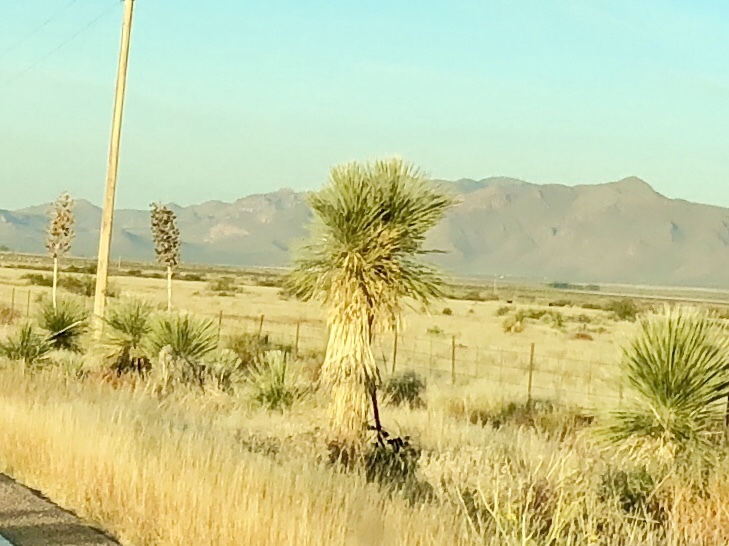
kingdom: Plantae
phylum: Tracheophyta
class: Liliopsida
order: Asparagales
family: Asparagaceae
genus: Yucca
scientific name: Yucca elata
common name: Palmella
